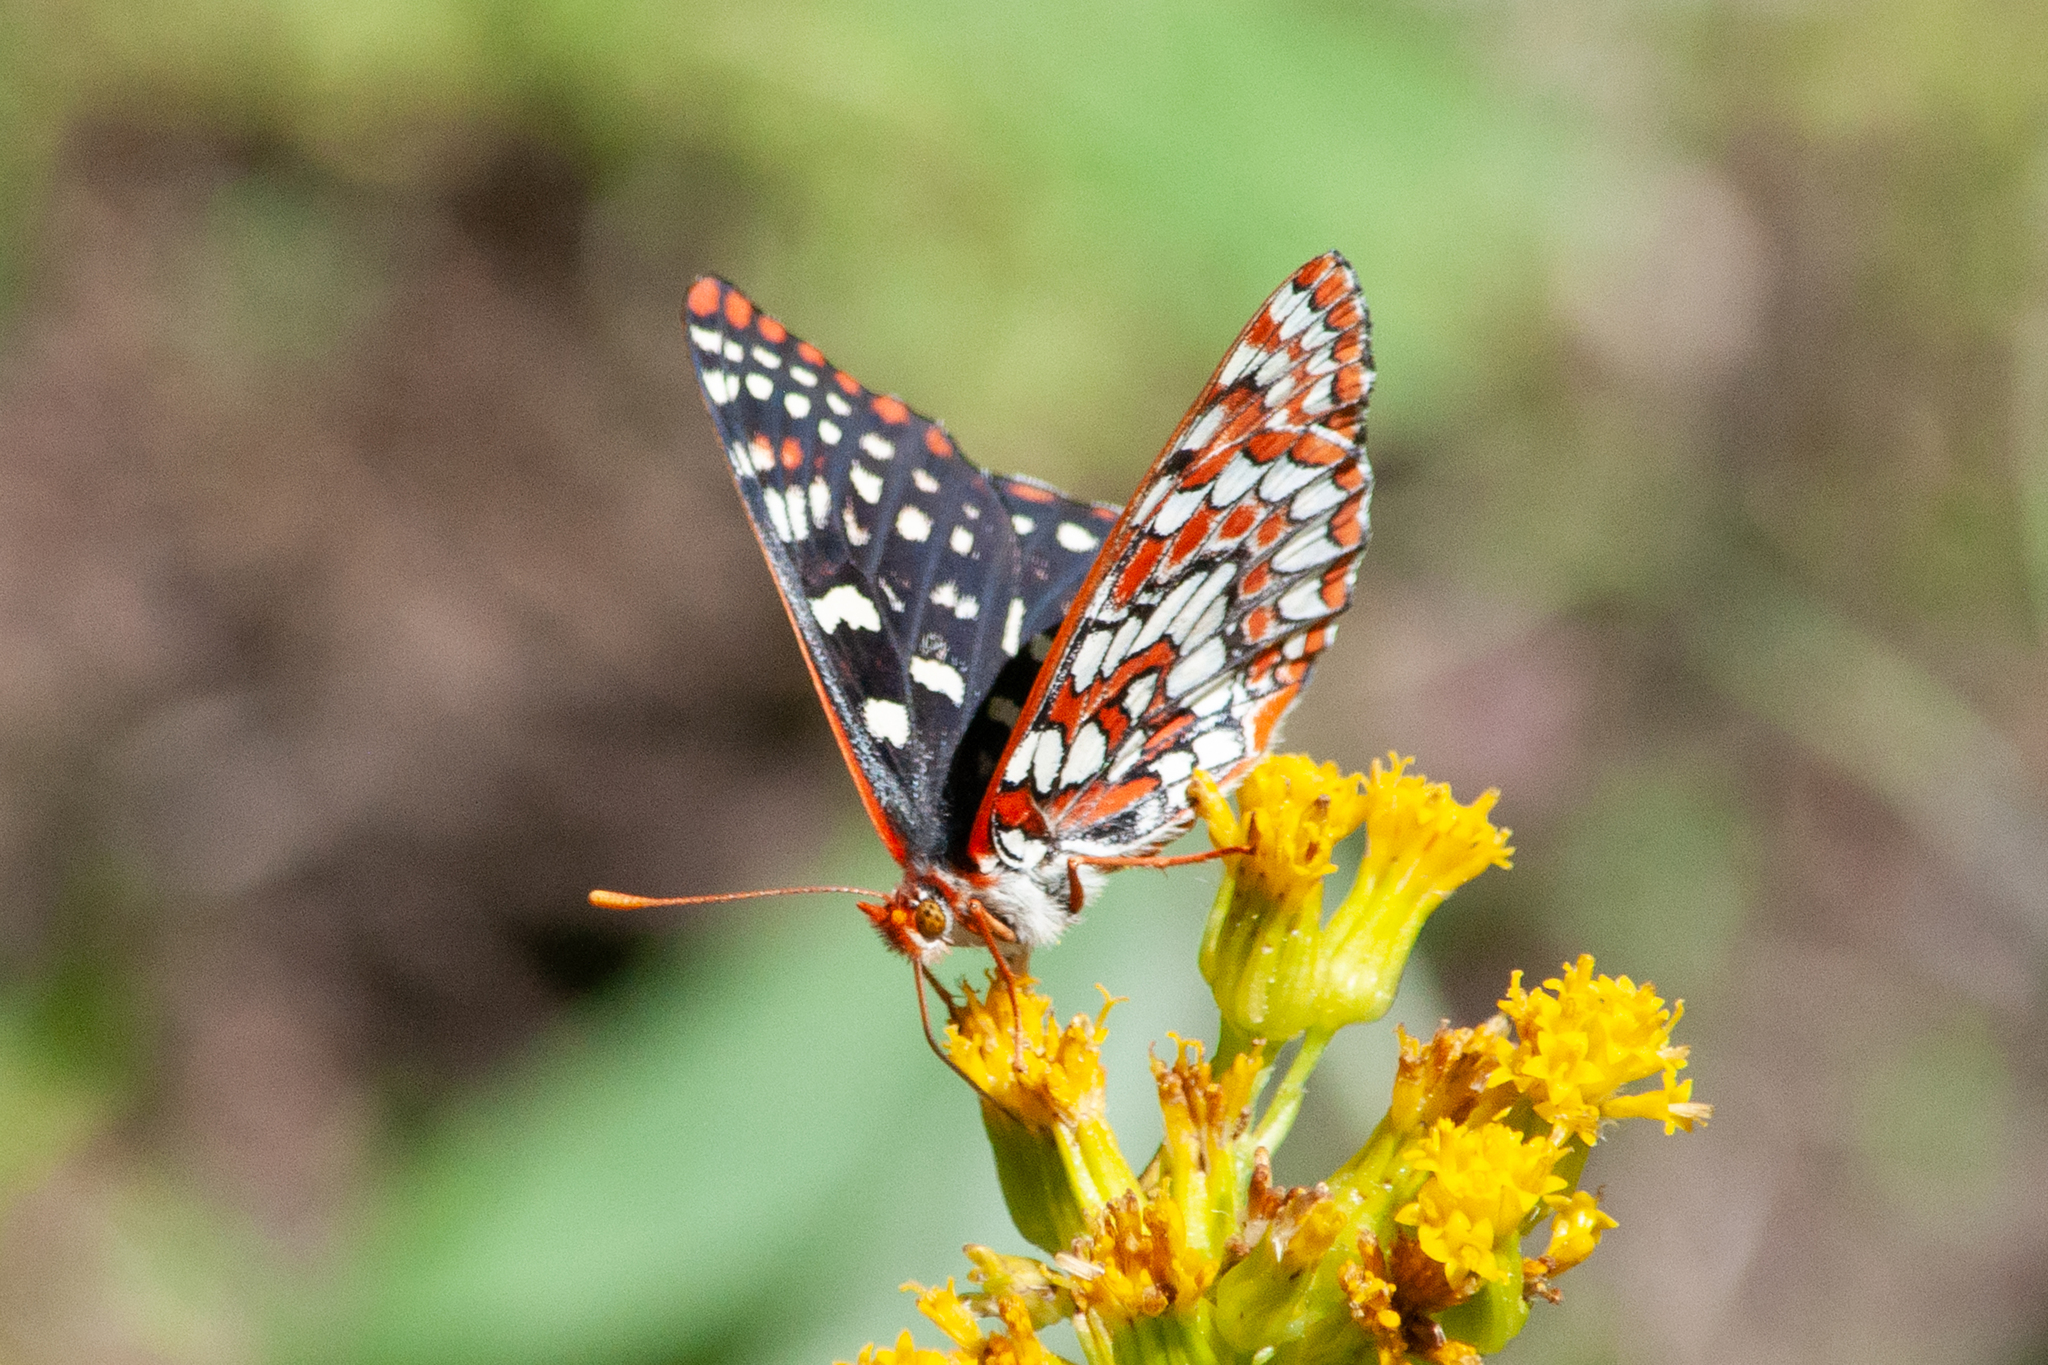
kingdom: Animalia
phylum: Arthropoda
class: Insecta
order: Lepidoptera
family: Nymphalidae
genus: Occidryas
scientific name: Occidryas chalcedona
